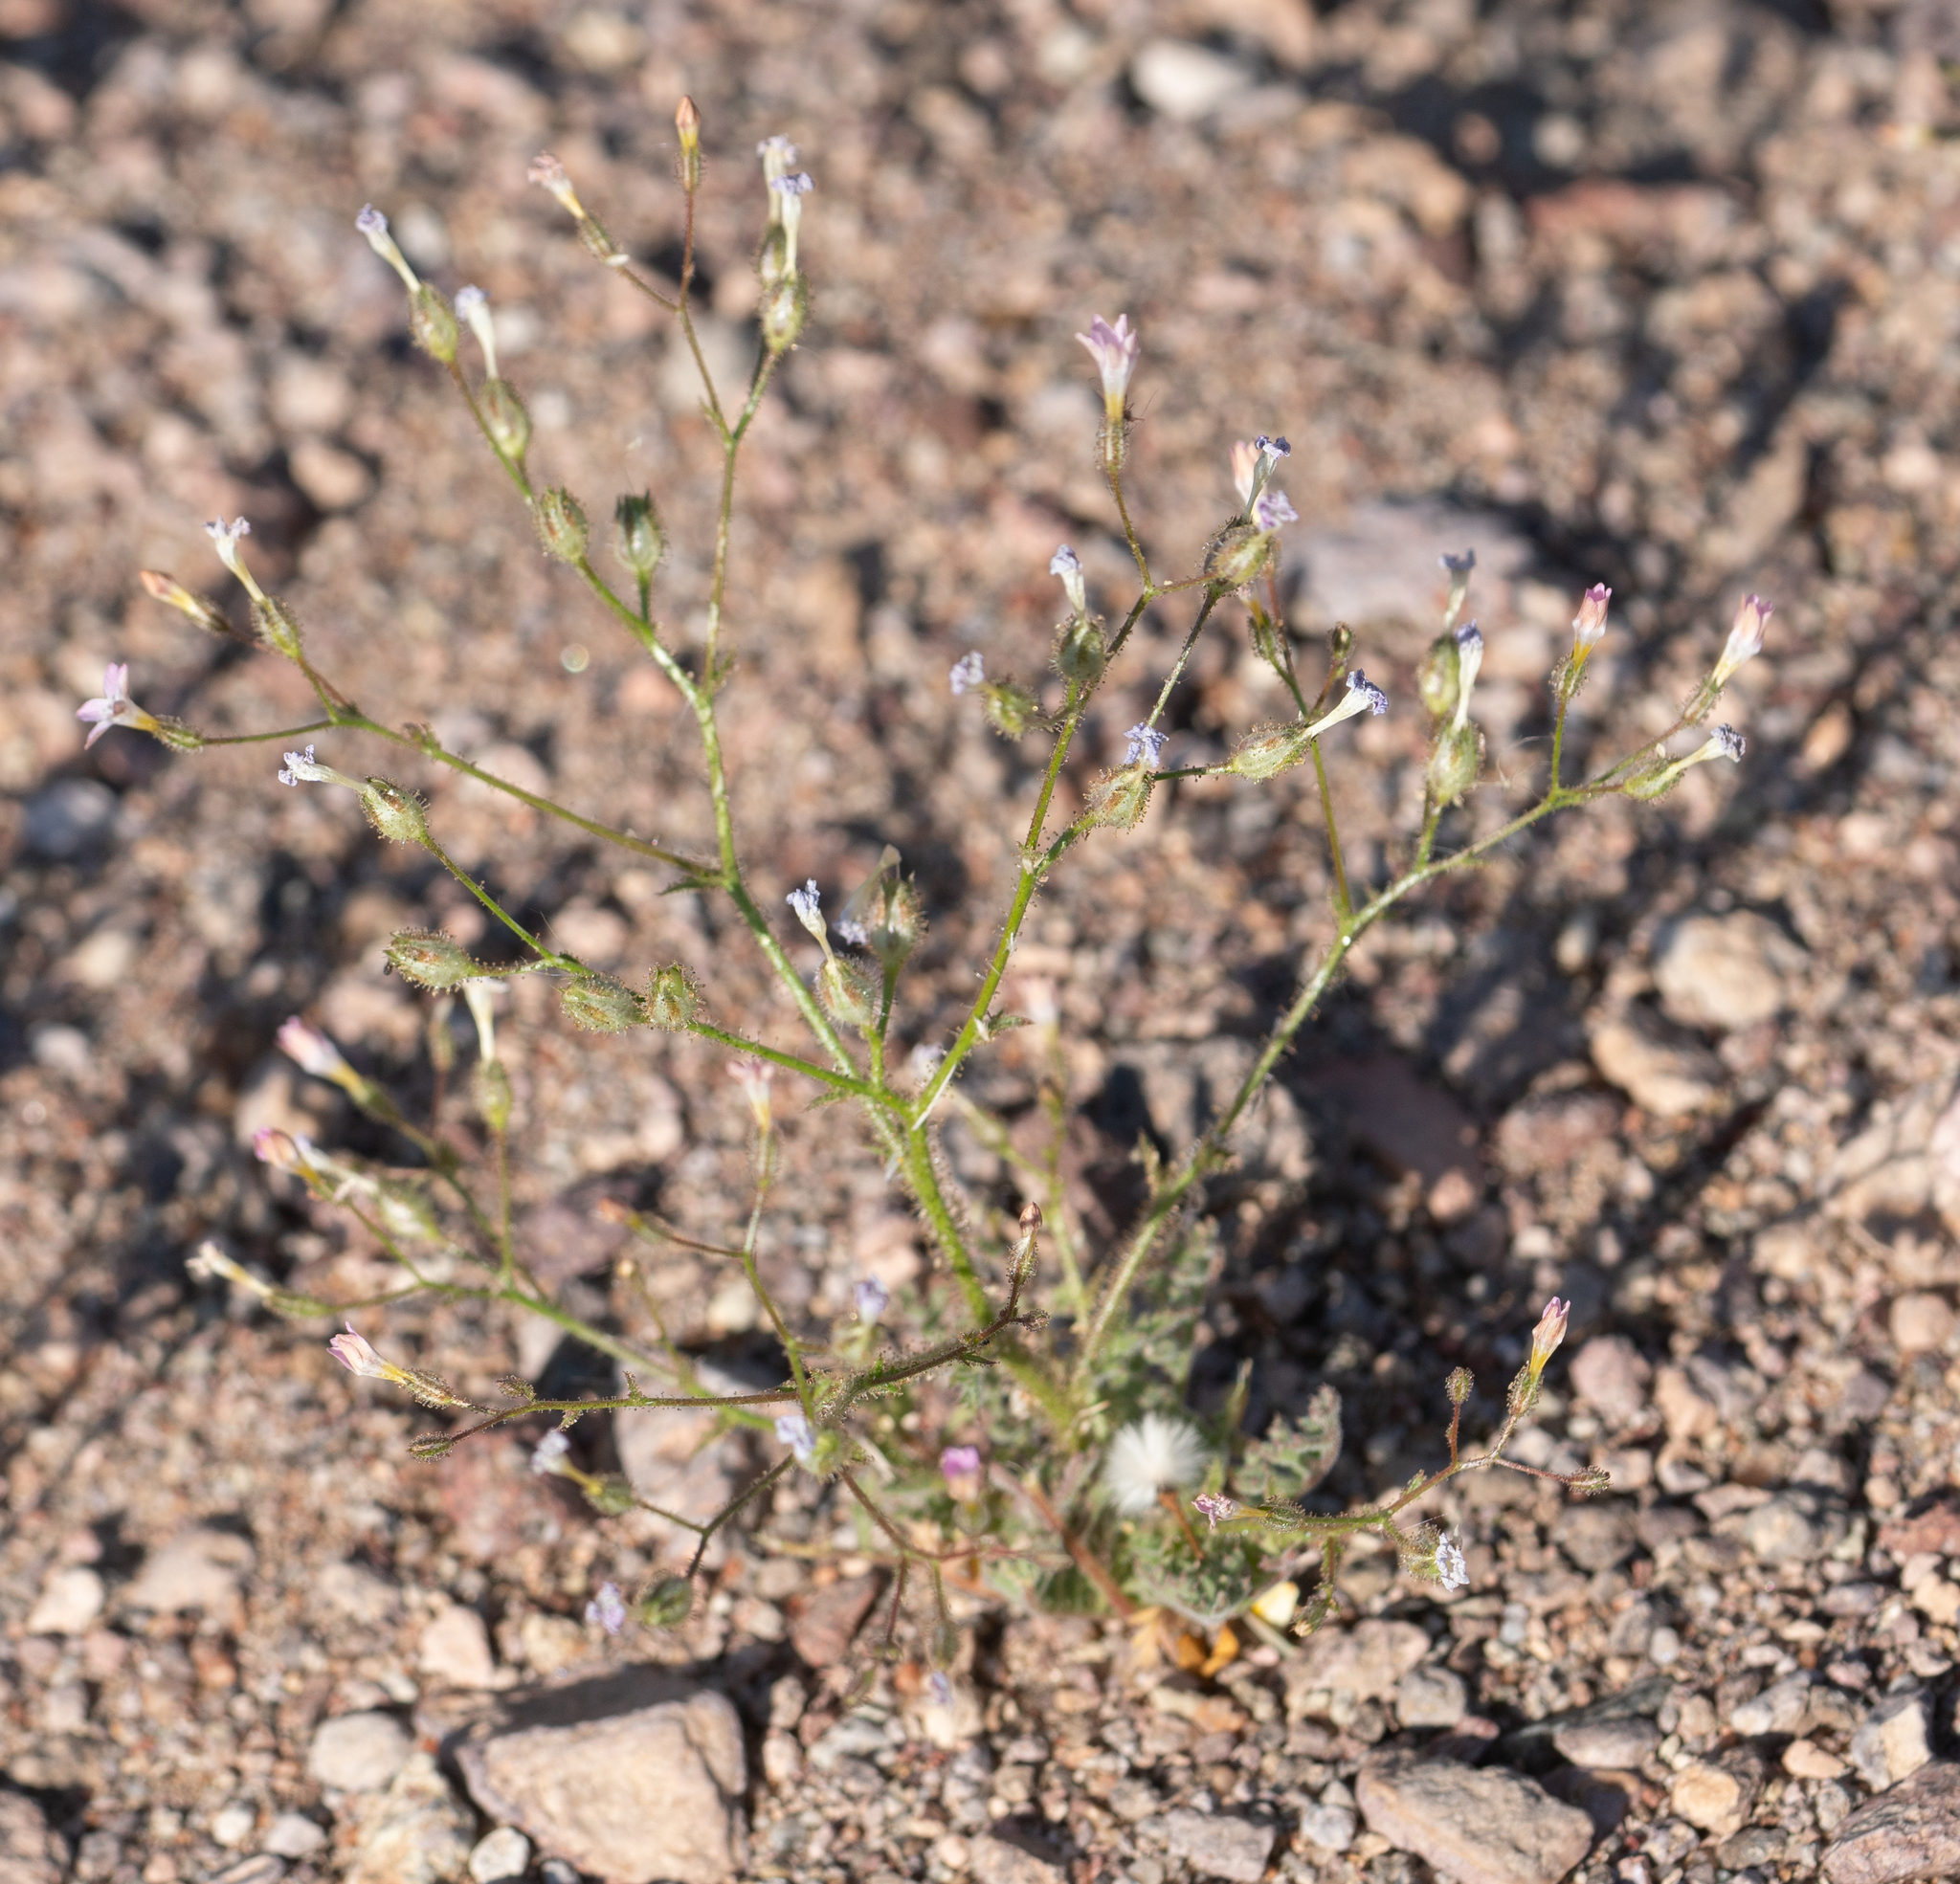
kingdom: Plantae
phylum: Tracheophyta
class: Magnoliopsida
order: Ericales
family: Polemoniaceae
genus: Gilia
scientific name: Gilia stellata
